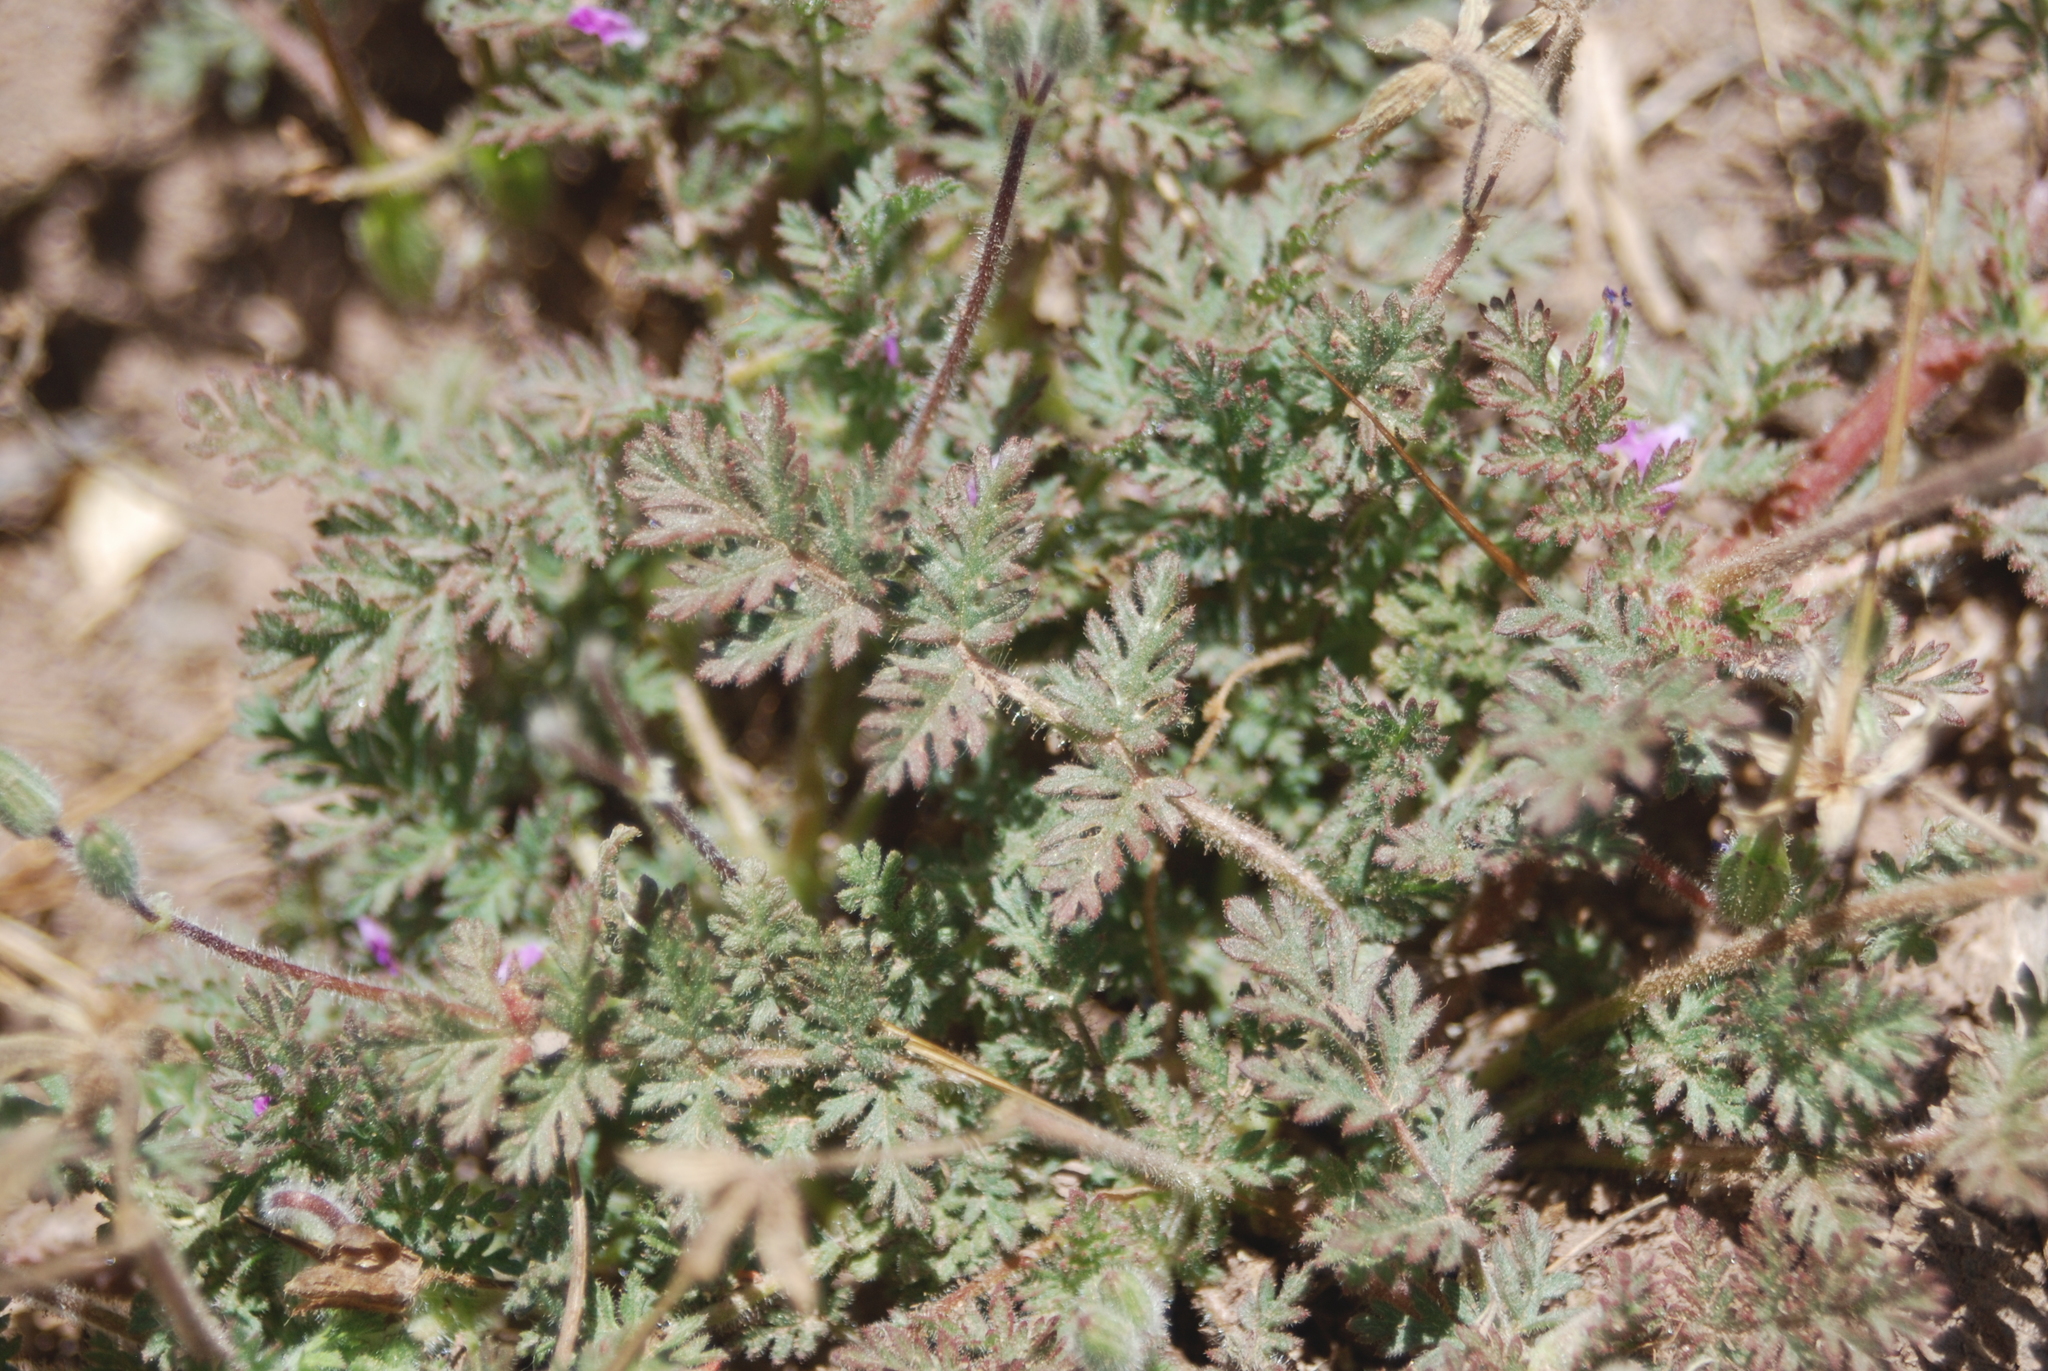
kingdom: Plantae
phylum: Tracheophyta
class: Magnoliopsida
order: Geraniales
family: Geraniaceae
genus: Erodium
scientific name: Erodium cicutarium
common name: Common stork's-bill
